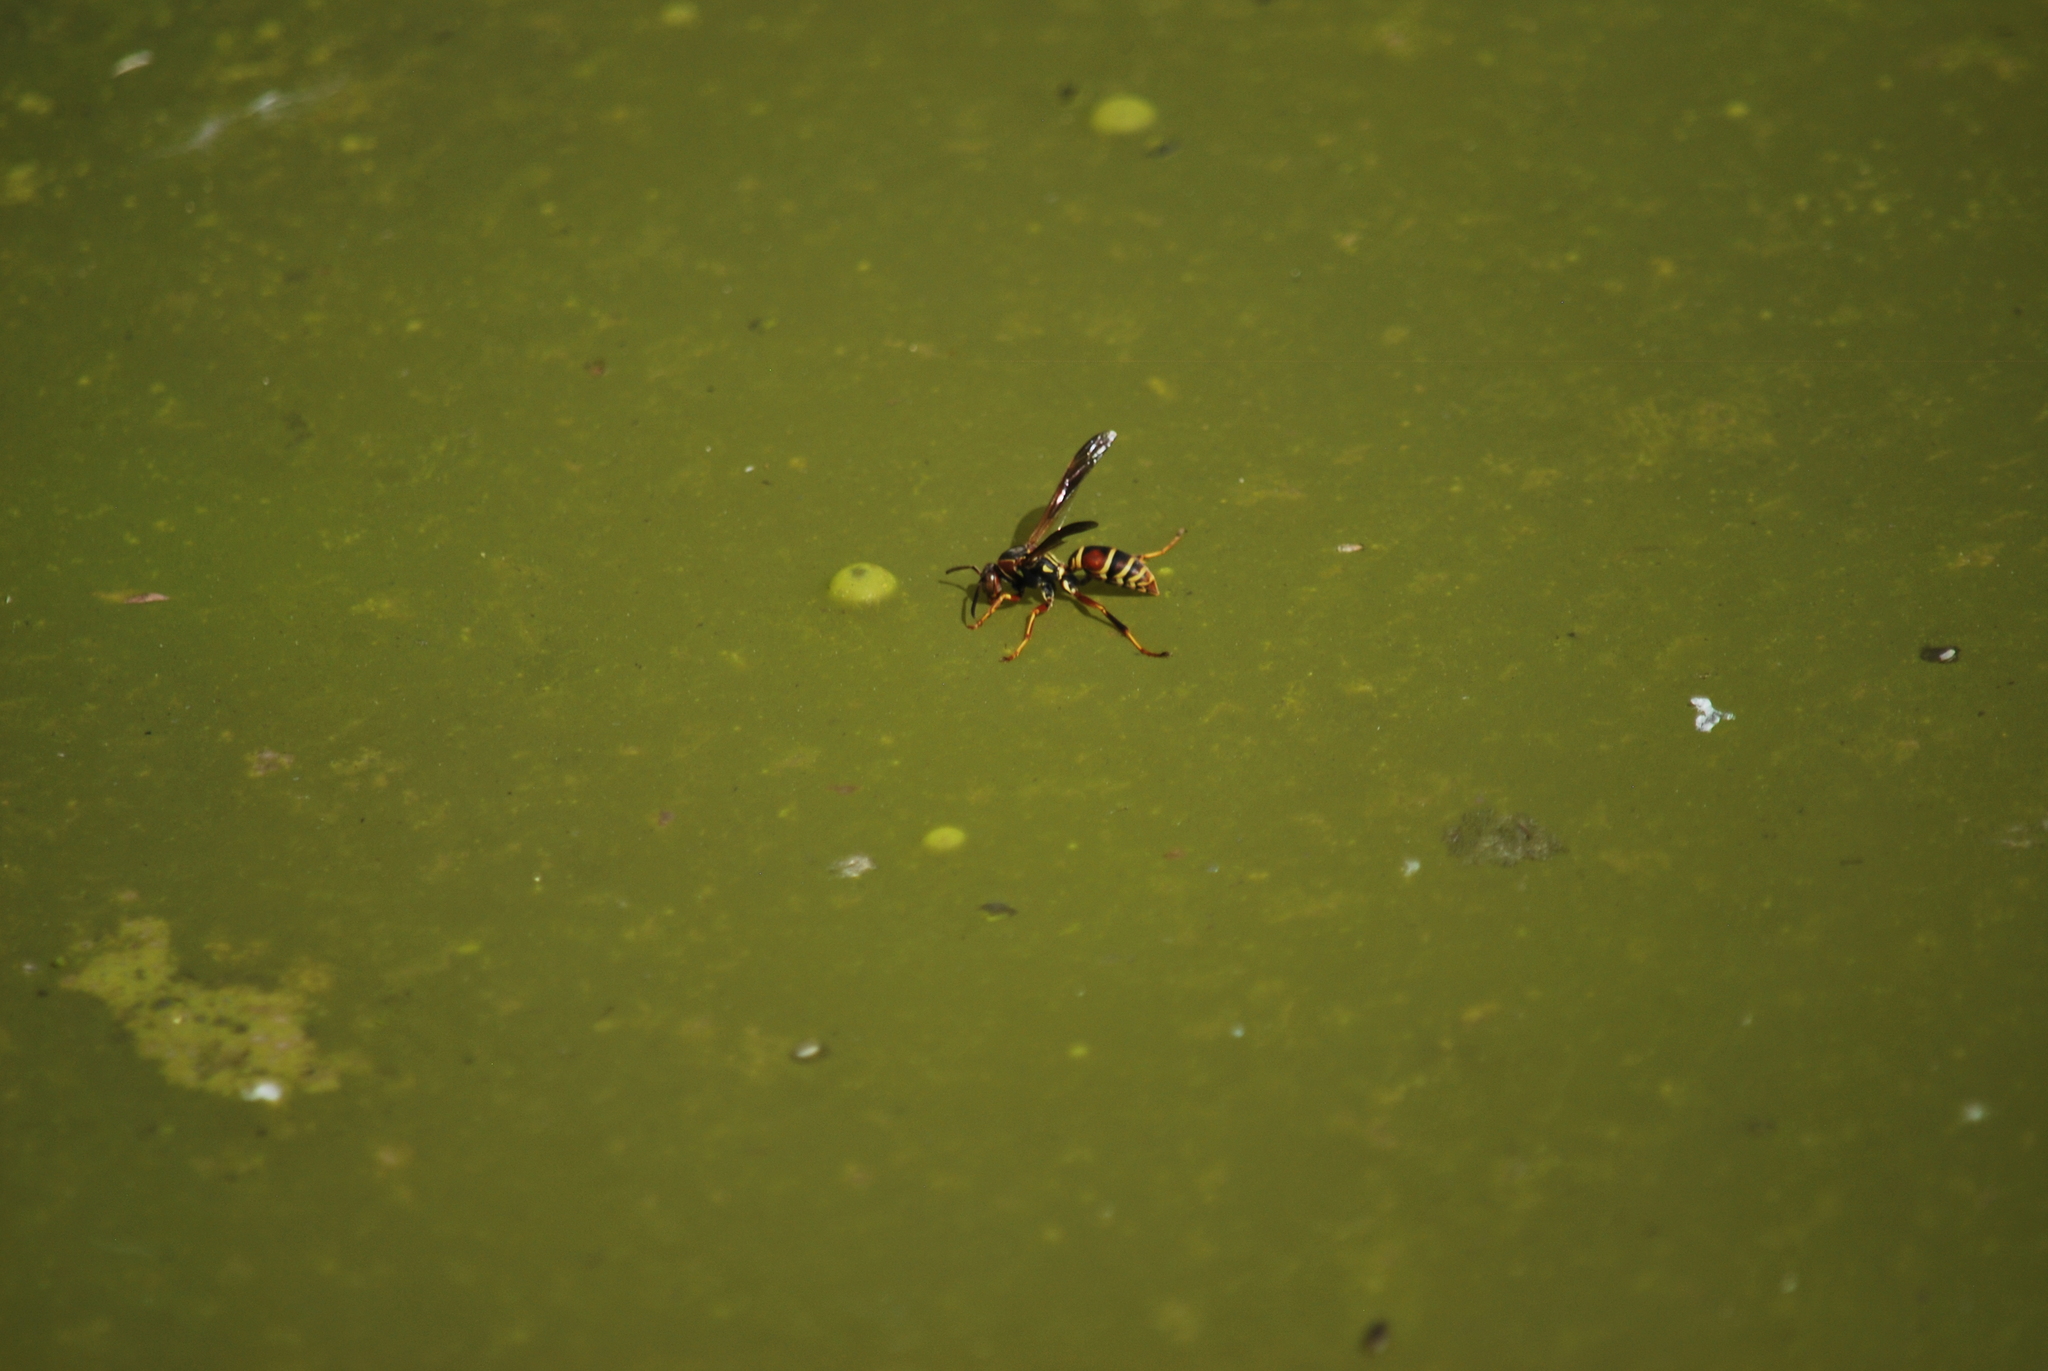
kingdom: Animalia
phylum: Arthropoda
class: Insecta
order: Hymenoptera
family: Eumenidae
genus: Polistes
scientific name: Polistes fuscatus
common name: Dark paper wasp
